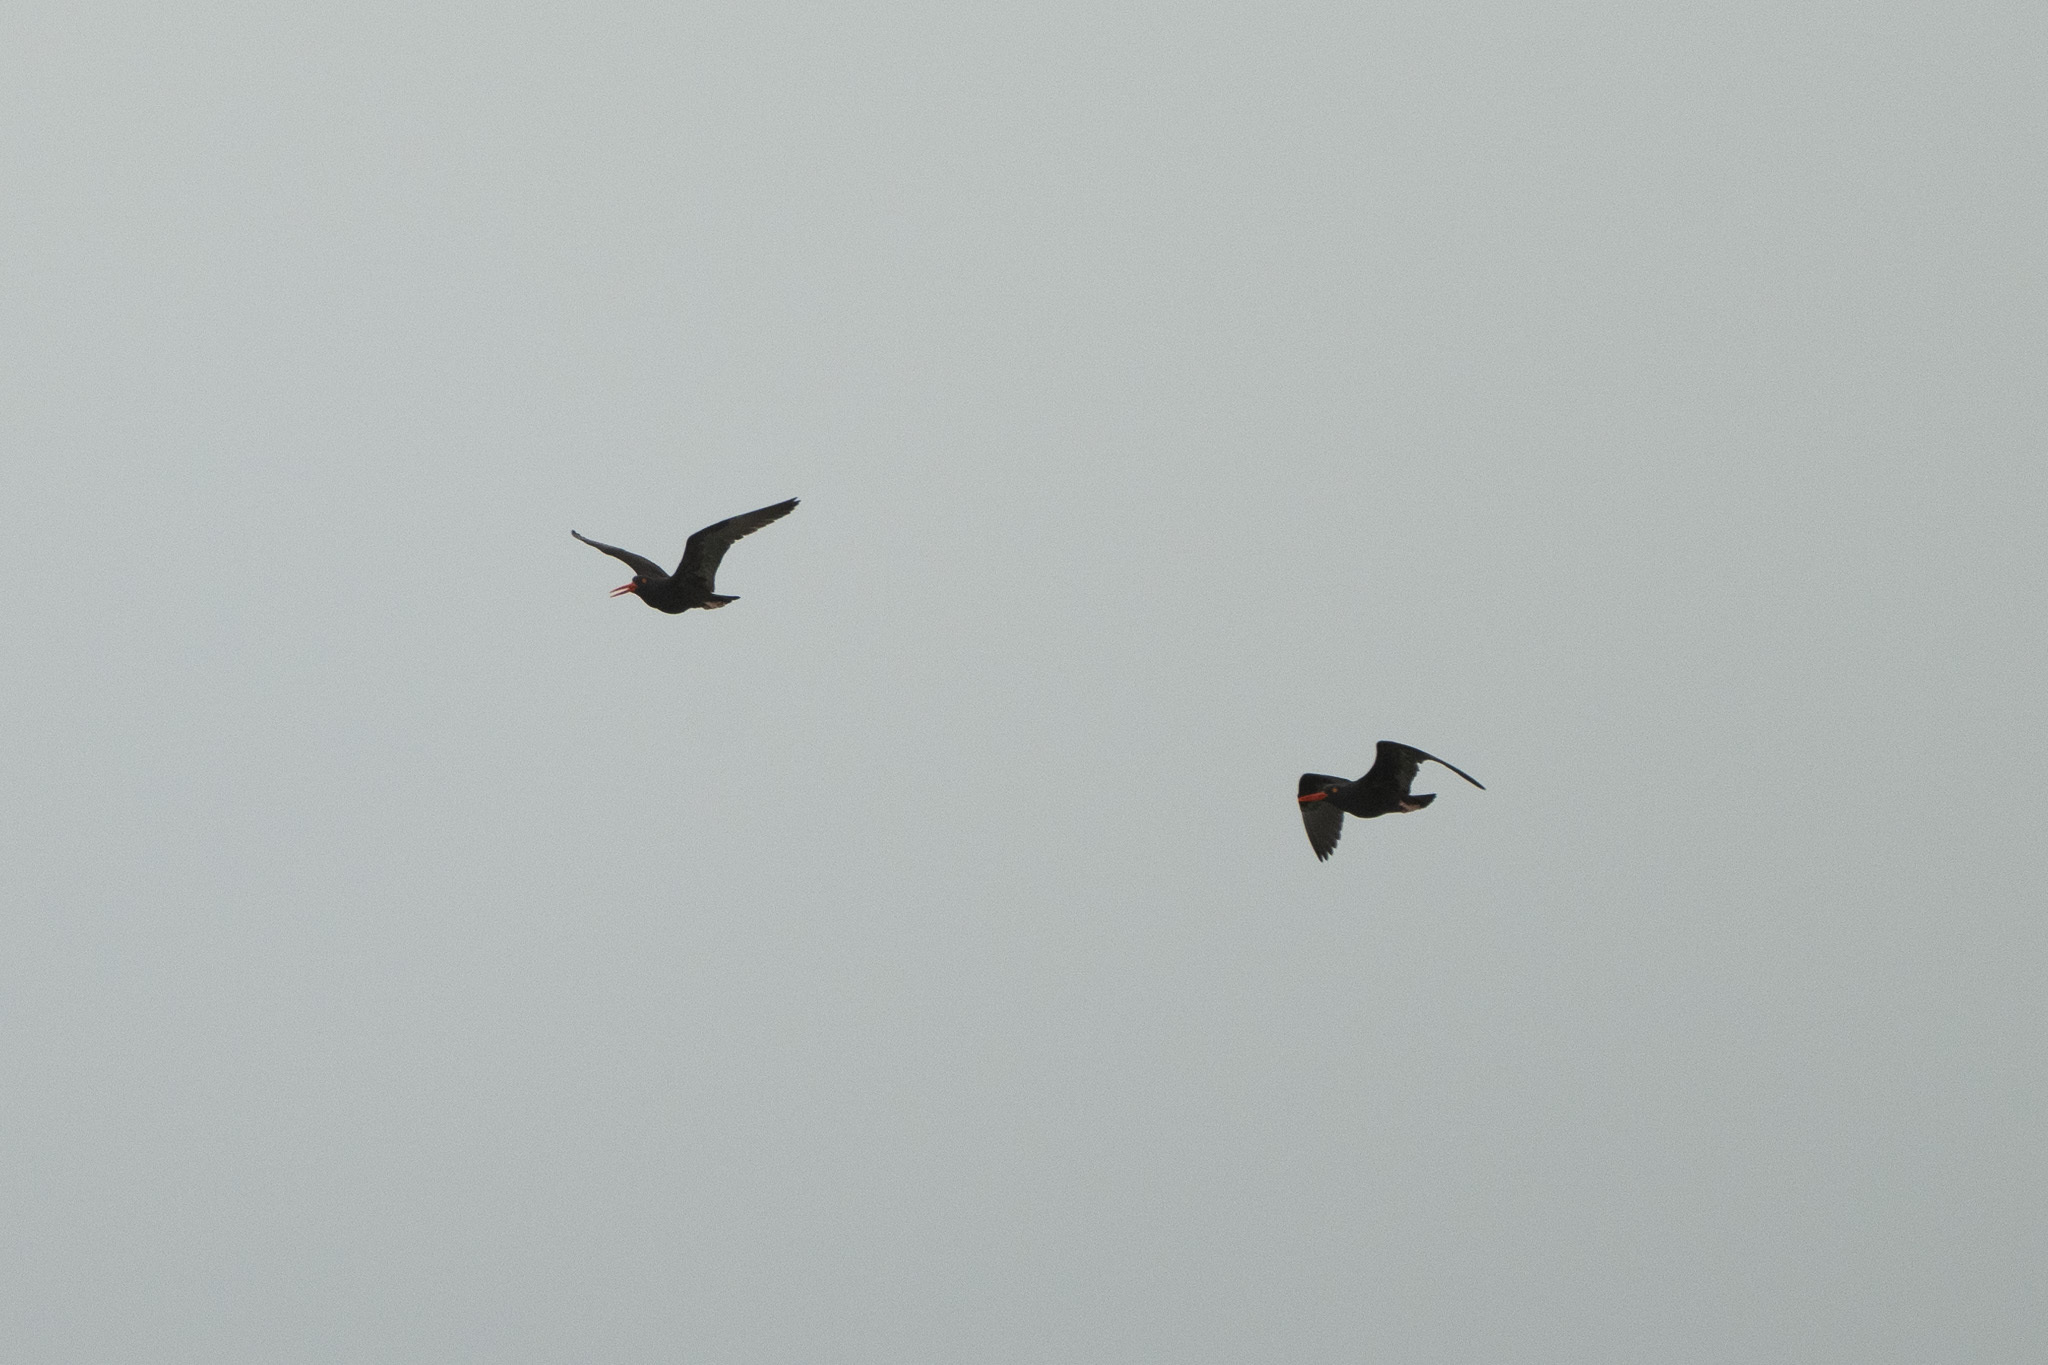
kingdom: Animalia
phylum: Chordata
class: Aves
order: Charadriiformes
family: Haematopodidae
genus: Haematopus
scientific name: Haematopus bachmani
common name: Black oystercatcher
